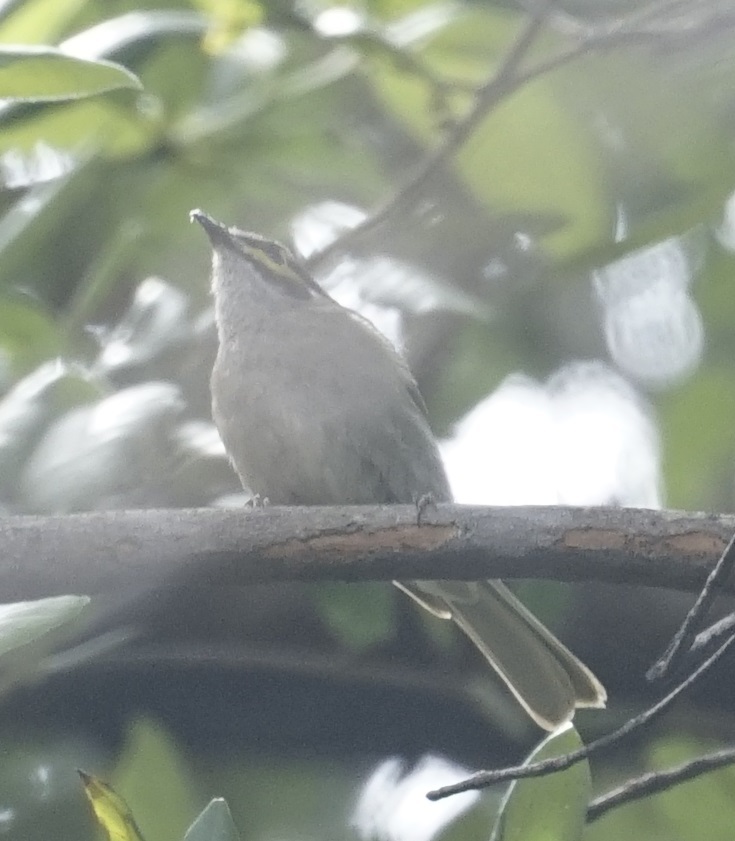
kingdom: Animalia
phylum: Chordata
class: Aves
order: Passeriformes
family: Meliphagidae
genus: Caligavis
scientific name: Caligavis chrysops
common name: Yellow-faced honeyeater
